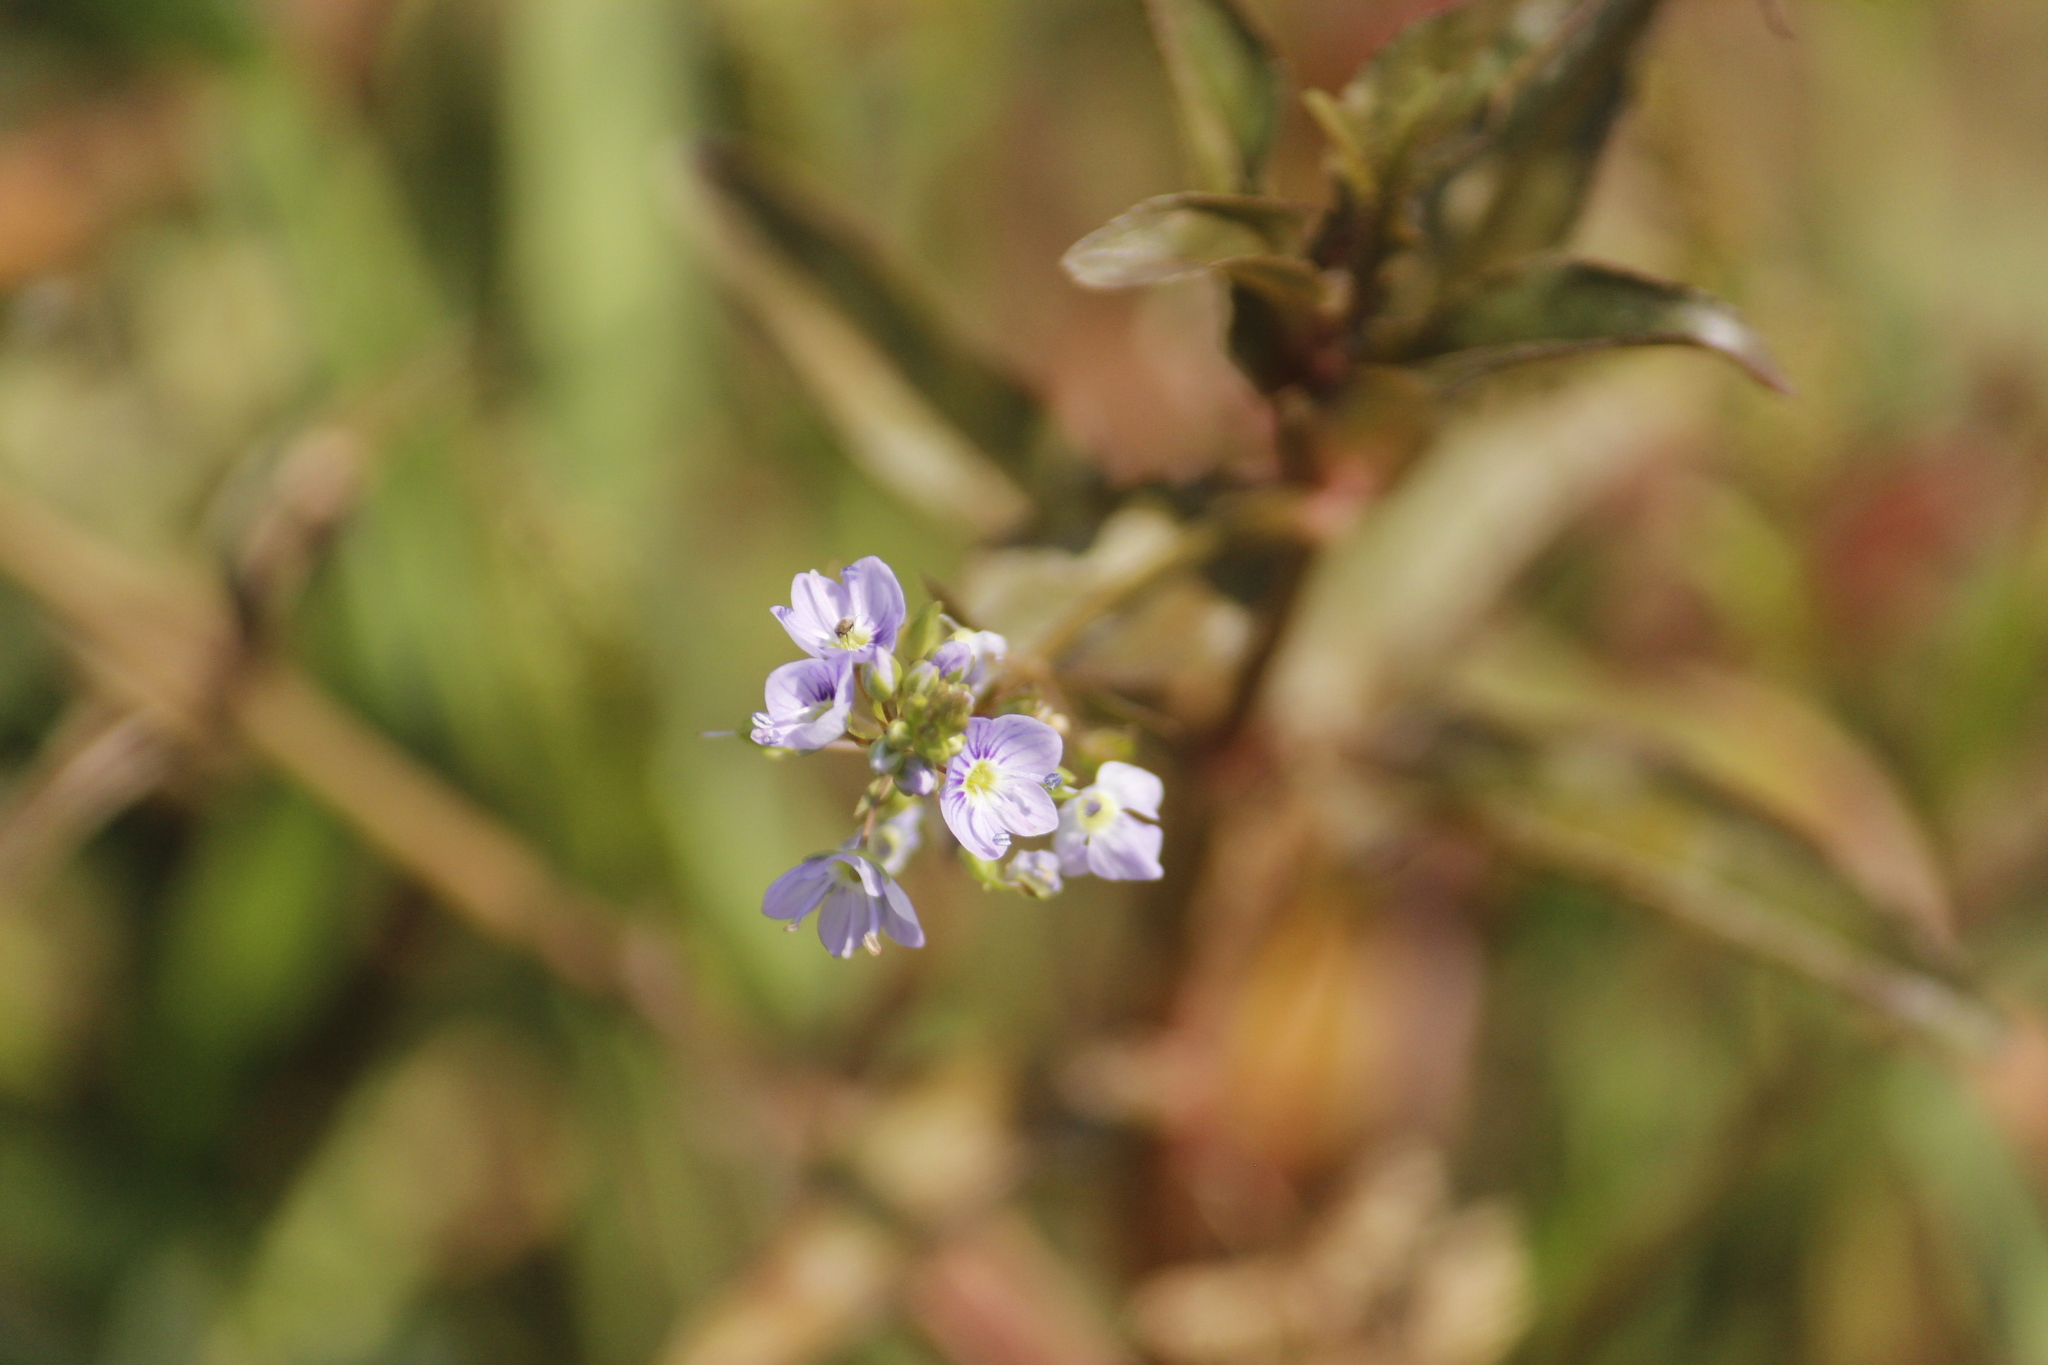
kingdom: Plantae
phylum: Tracheophyta
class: Magnoliopsida
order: Lamiales
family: Plantaginaceae
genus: Veronica
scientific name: Veronica anagallis-aquatica
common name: Water speedwell
